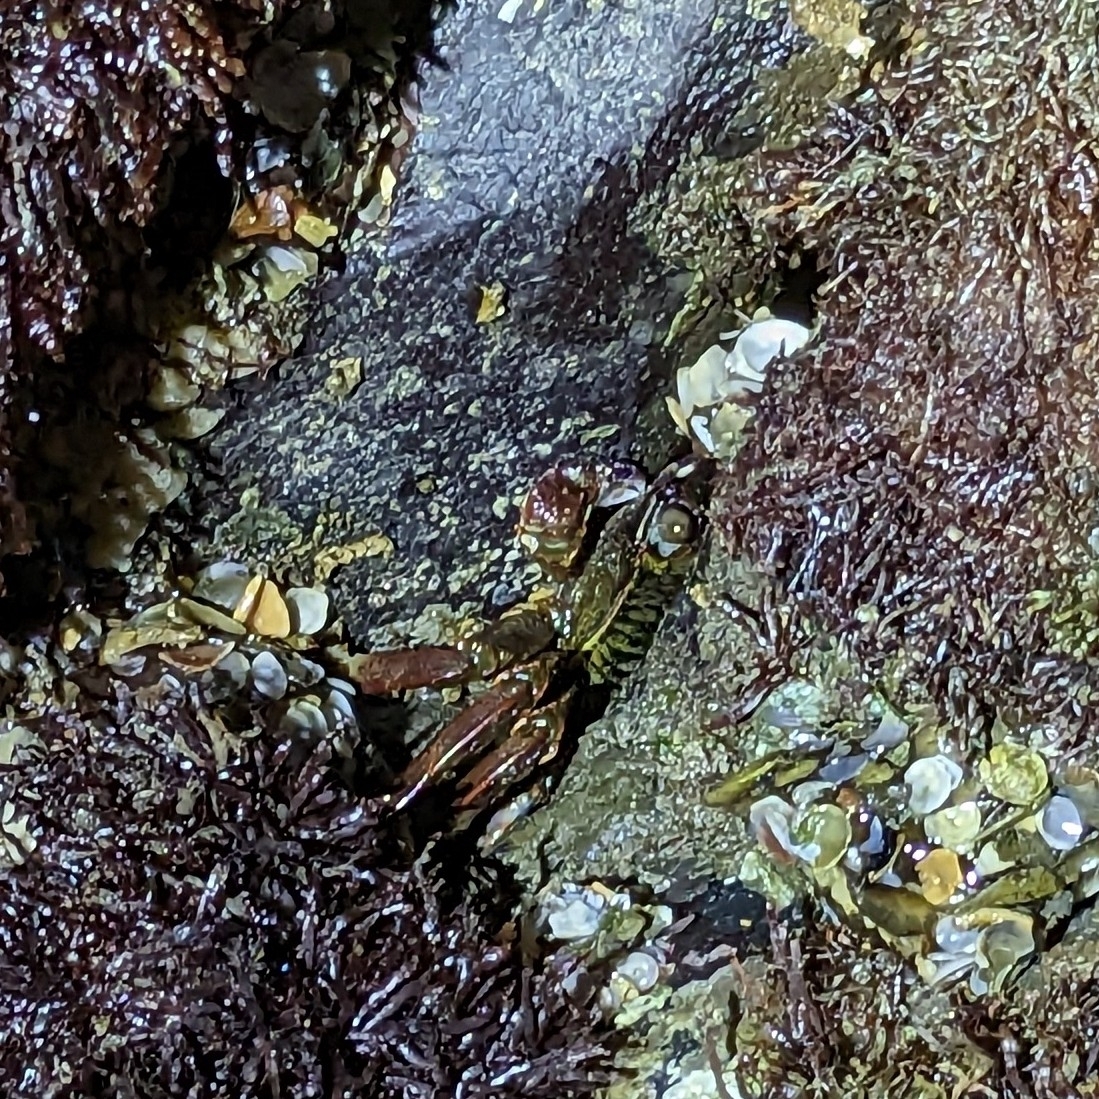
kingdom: Animalia
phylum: Arthropoda
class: Malacostraca
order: Decapoda
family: Grapsidae
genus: Grapsus
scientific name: Grapsus albolineatus
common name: Mottled lightfoot crab
